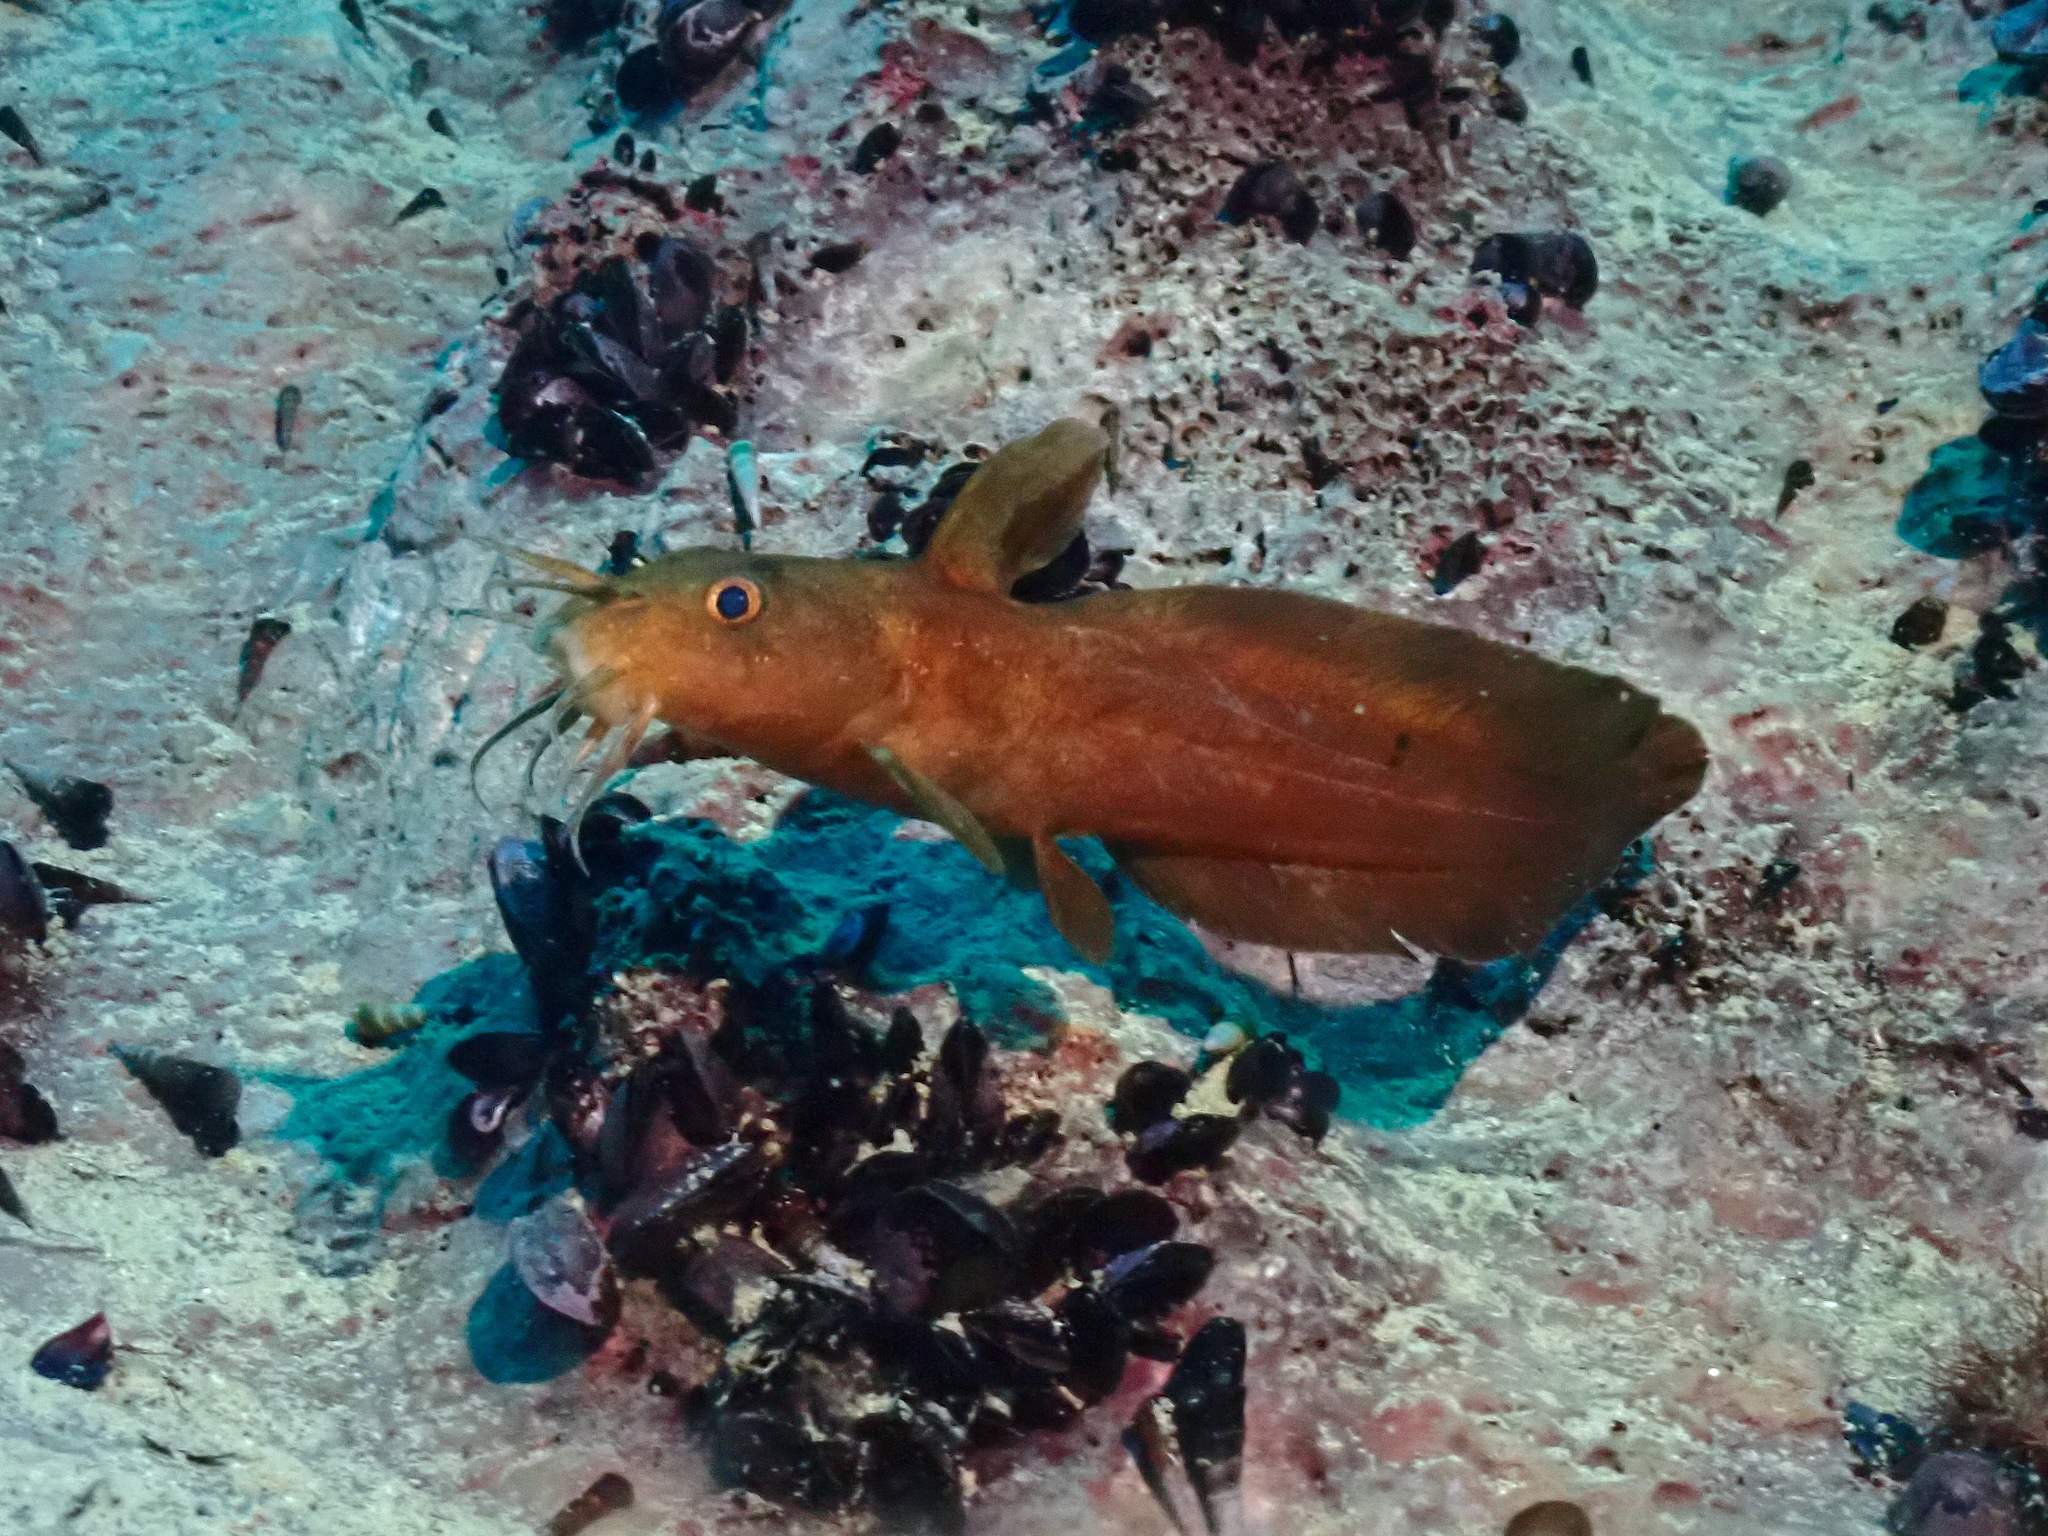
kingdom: Animalia
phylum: Chordata
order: Siluriformes
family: Plotosidae
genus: Paraplotosus
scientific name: Paraplotosus albilabris
